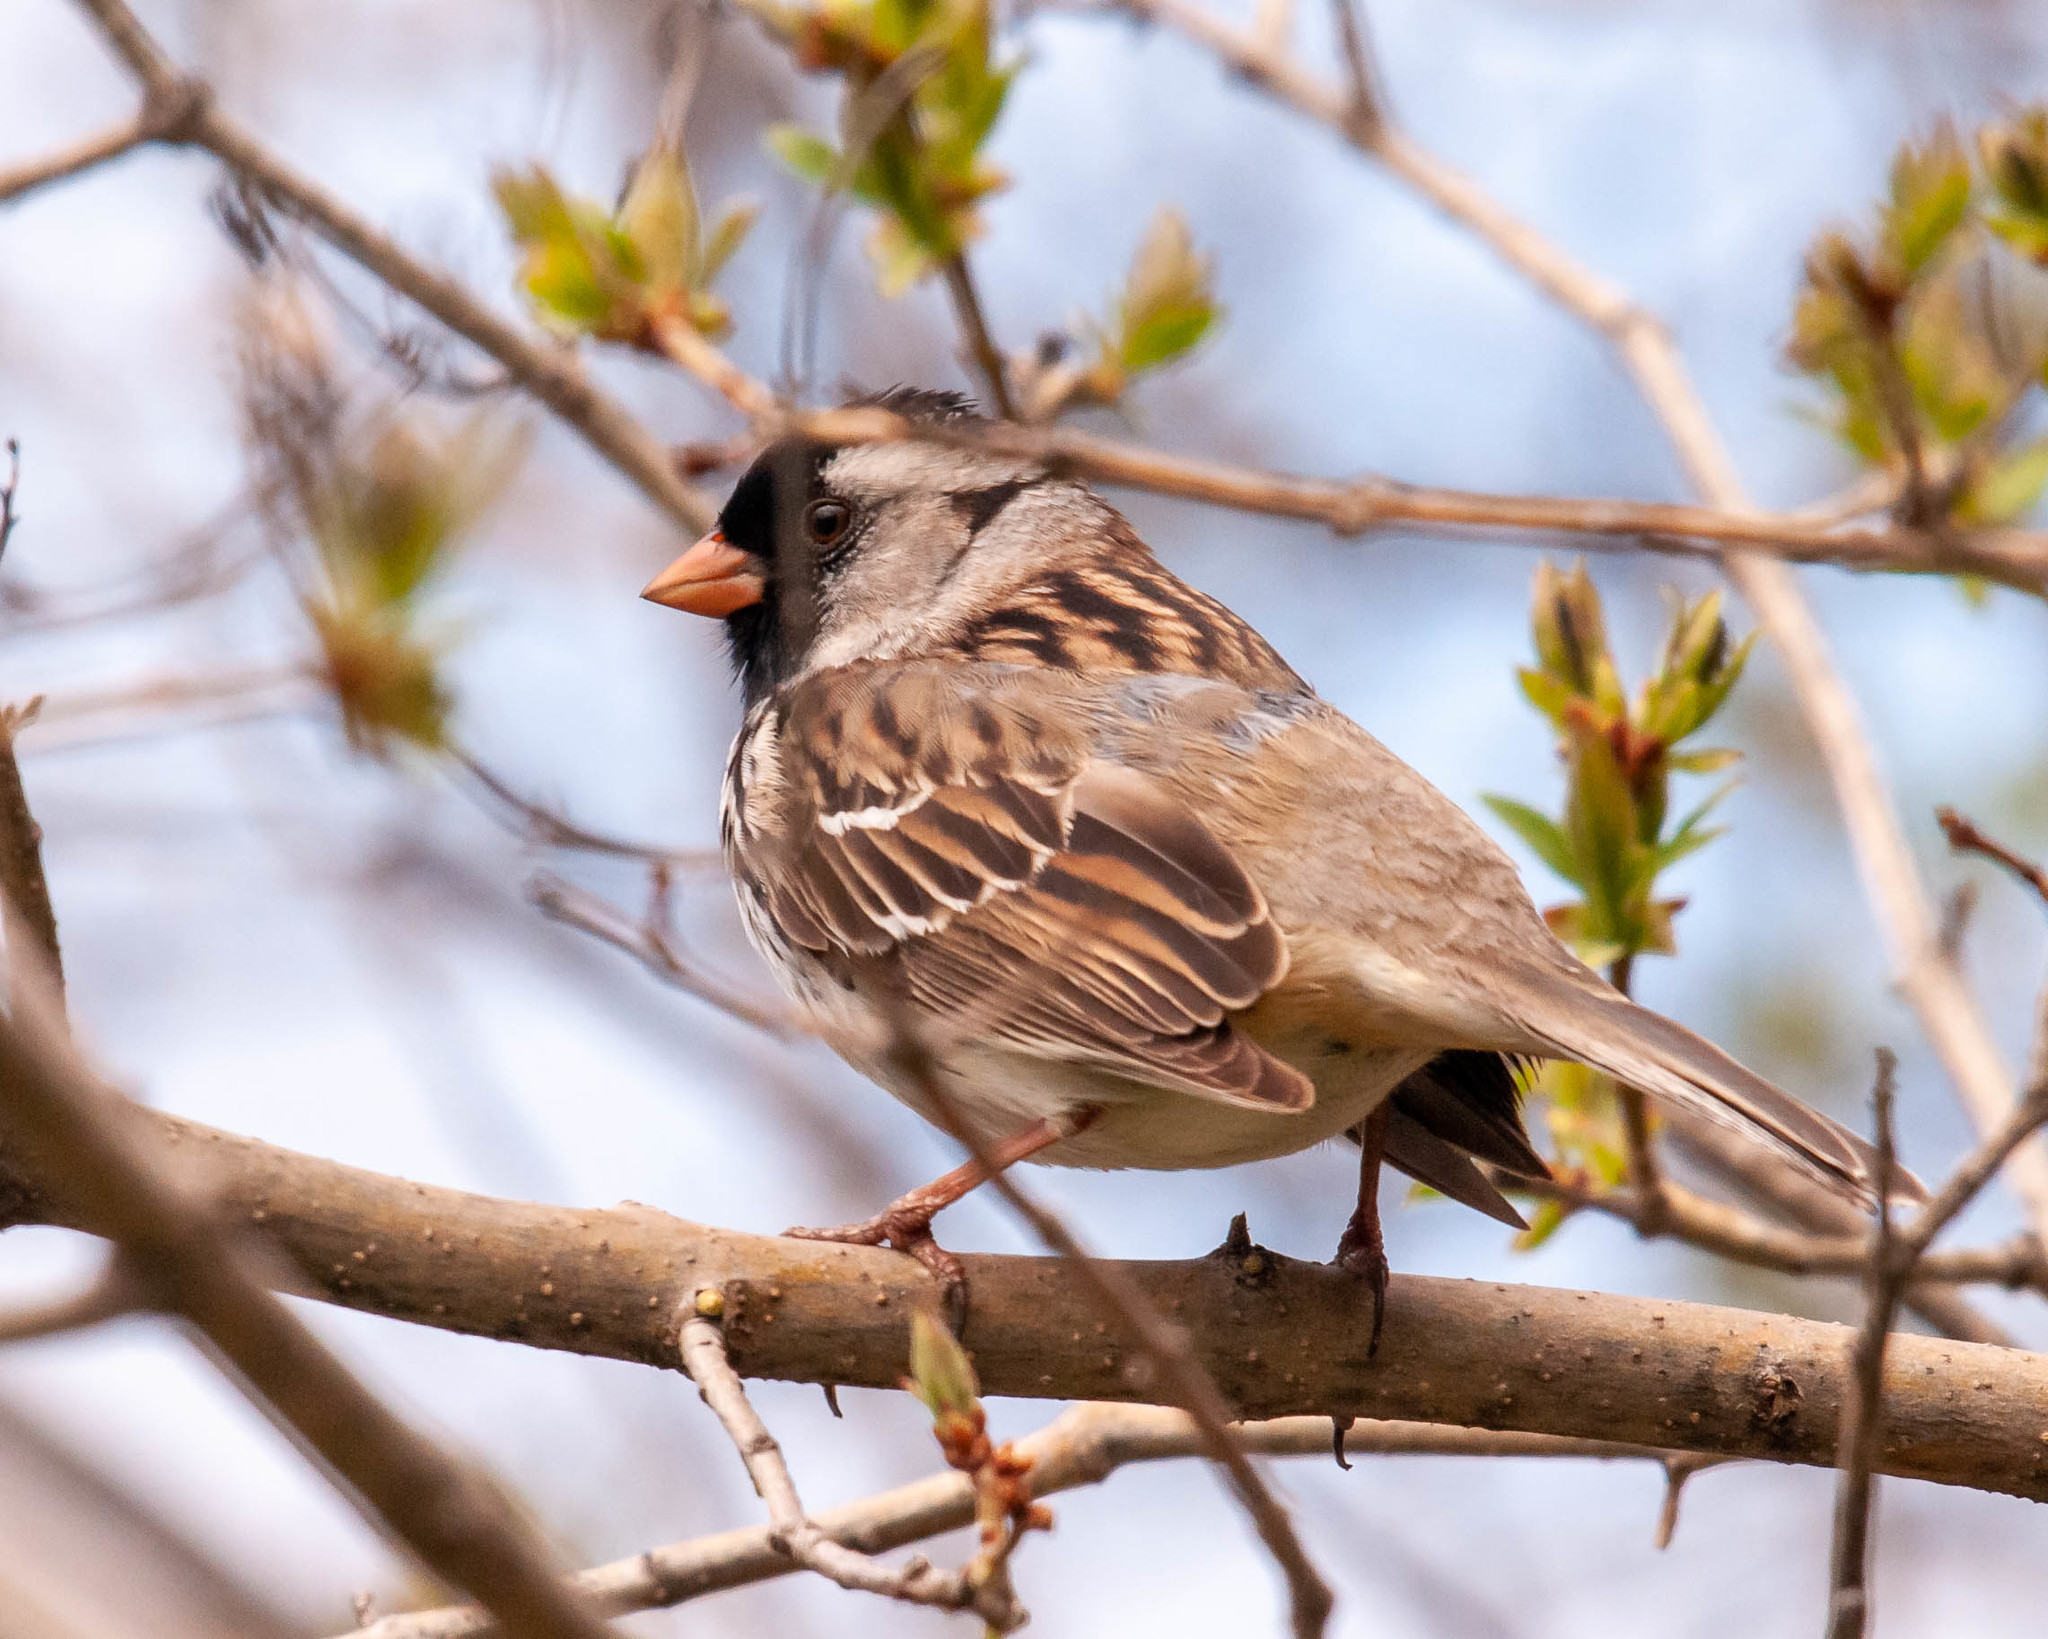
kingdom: Animalia
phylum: Chordata
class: Aves
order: Passeriformes
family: Passerellidae
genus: Zonotrichia
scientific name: Zonotrichia querula
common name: Harris's sparrow
